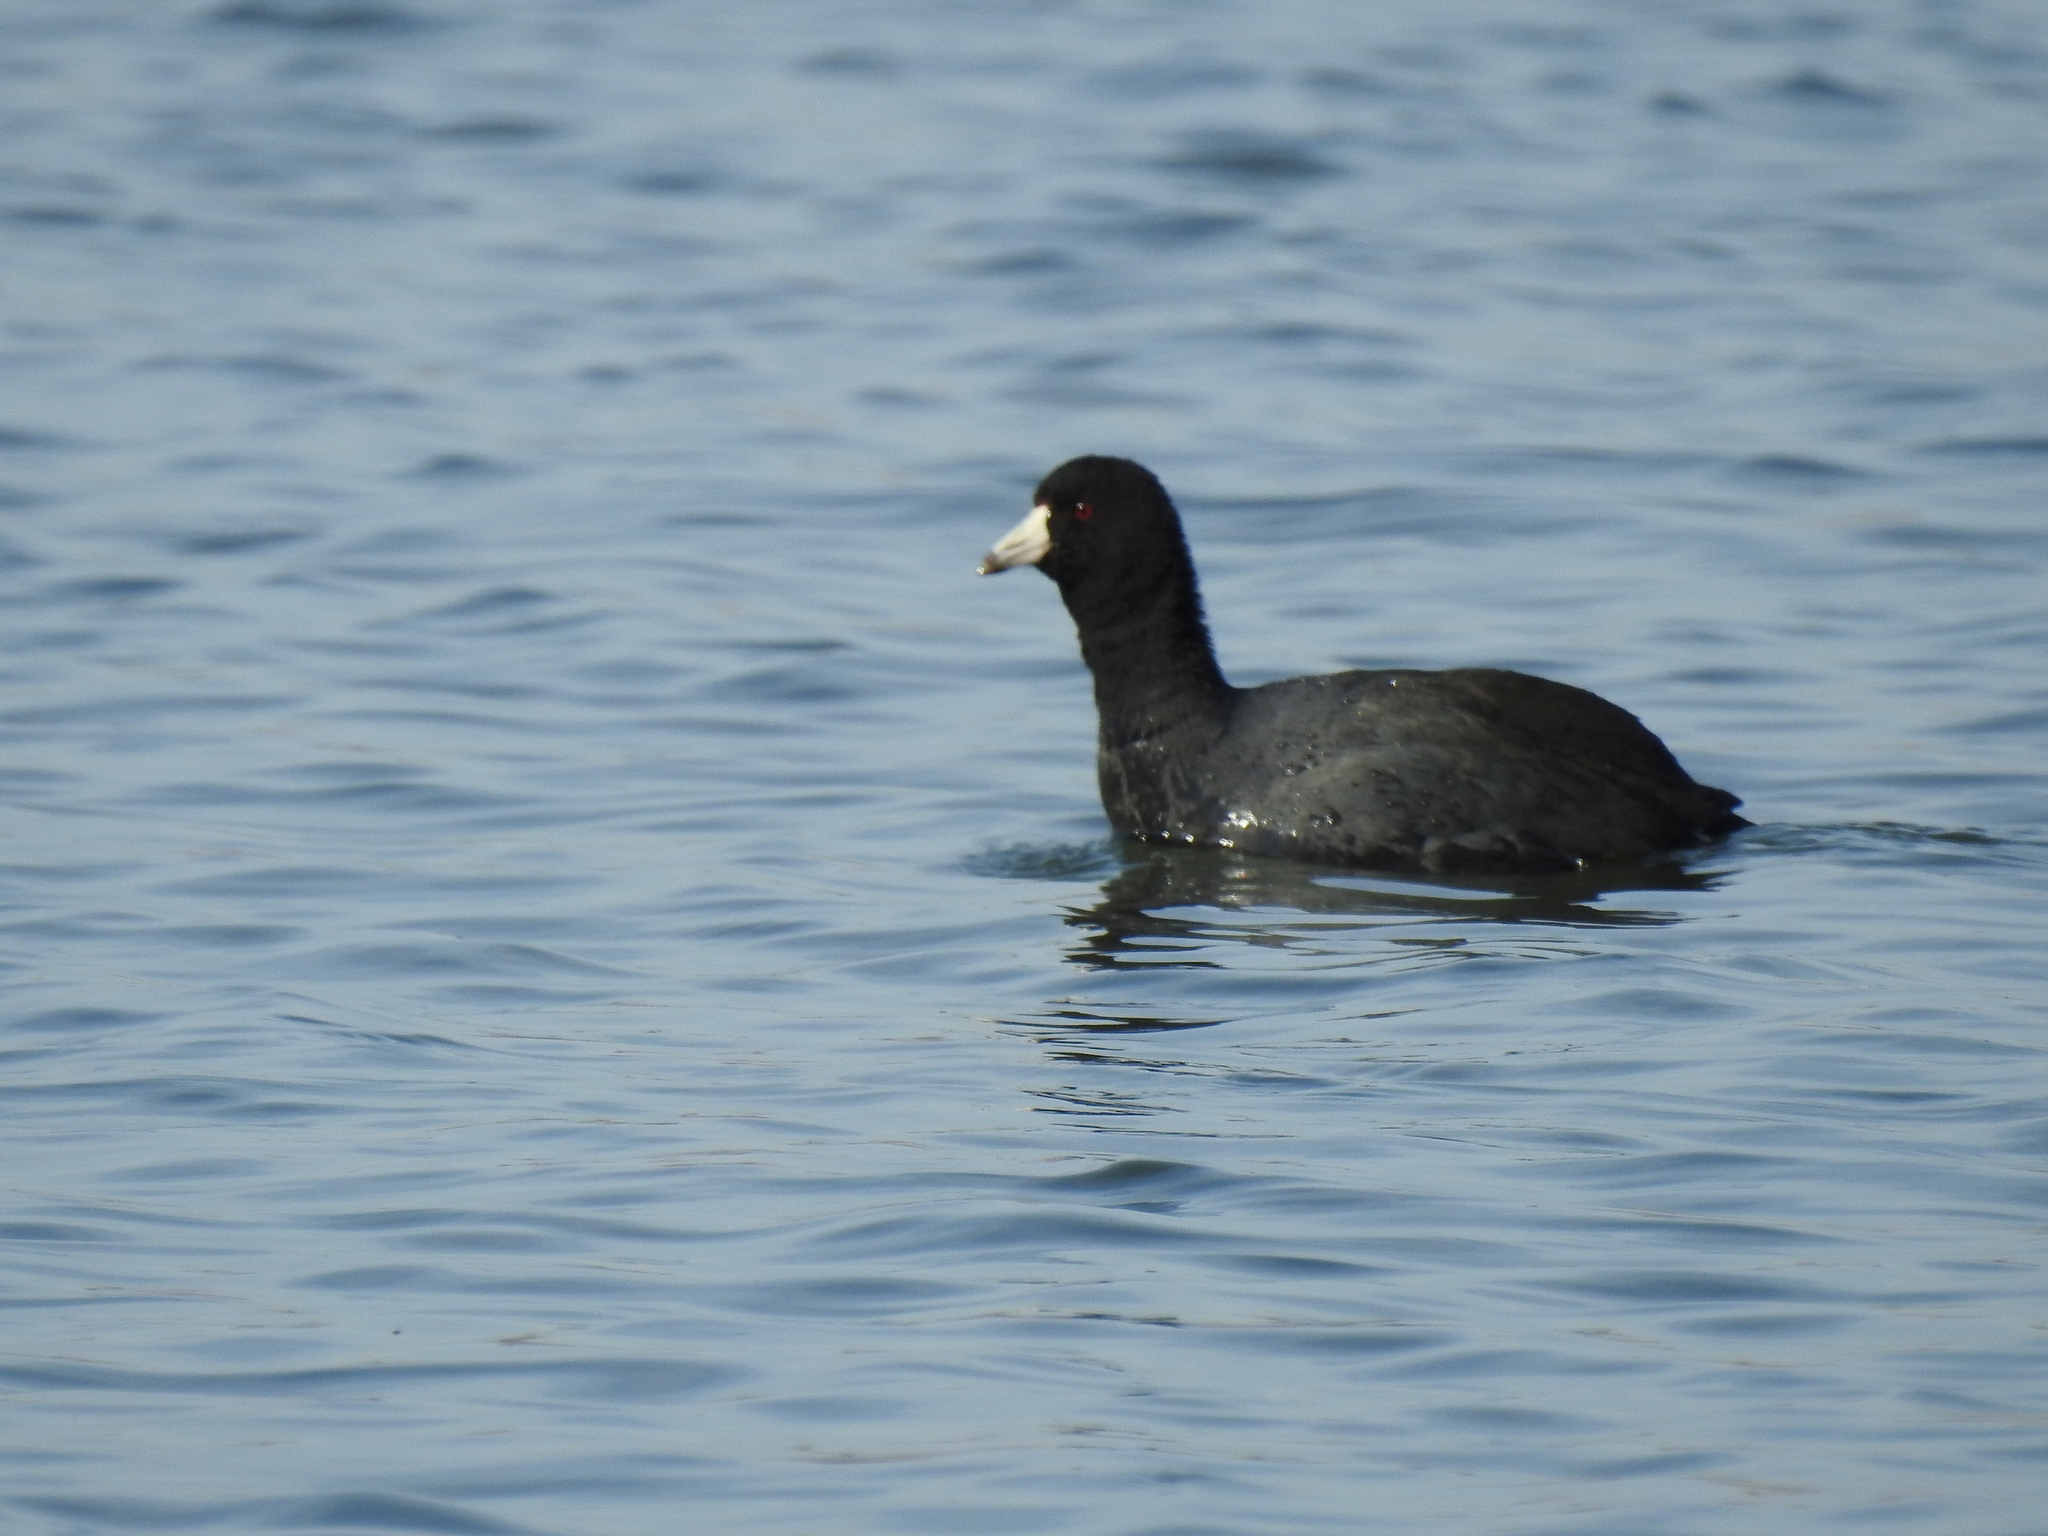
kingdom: Animalia
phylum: Chordata
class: Aves
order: Gruiformes
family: Rallidae
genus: Fulica
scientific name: Fulica americana
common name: American coot
